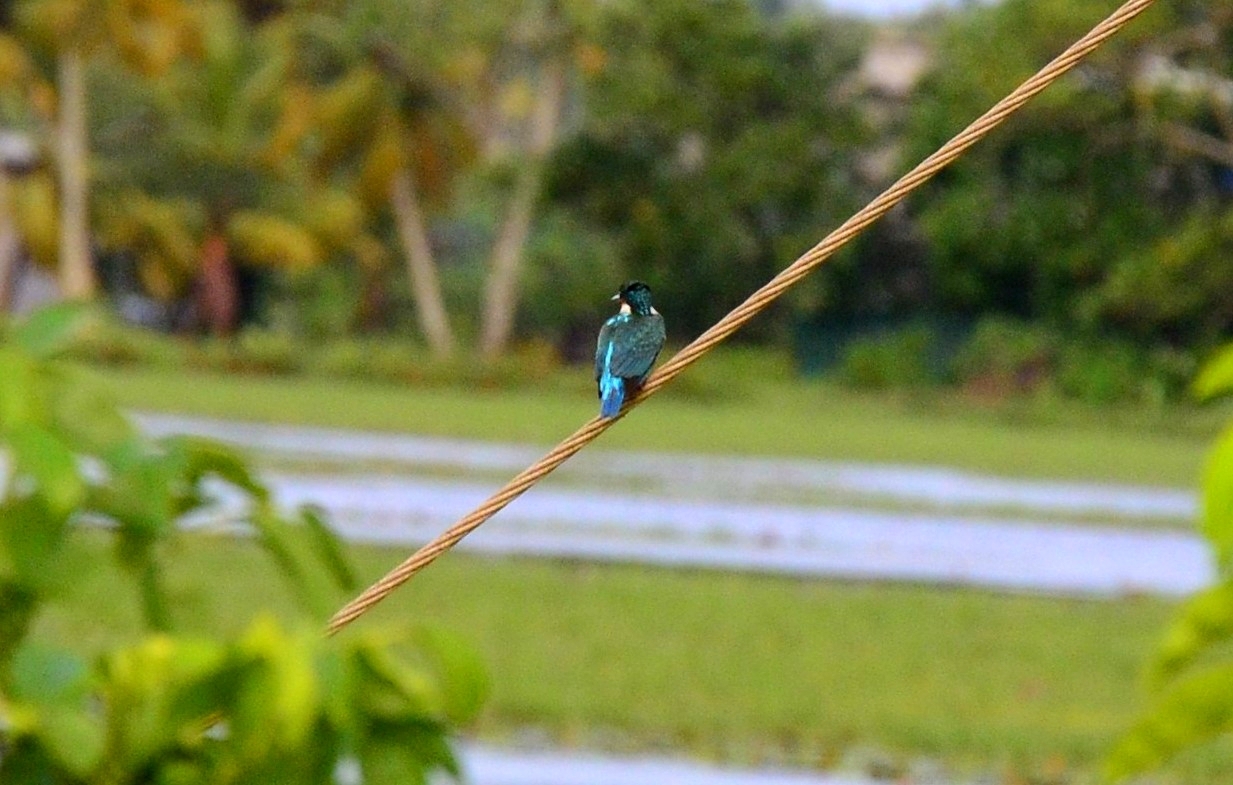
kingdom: Animalia
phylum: Chordata
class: Aves
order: Coraciiformes
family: Alcedinidae
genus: Alcedo
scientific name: Alcedo atthis
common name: Common kingfisher
